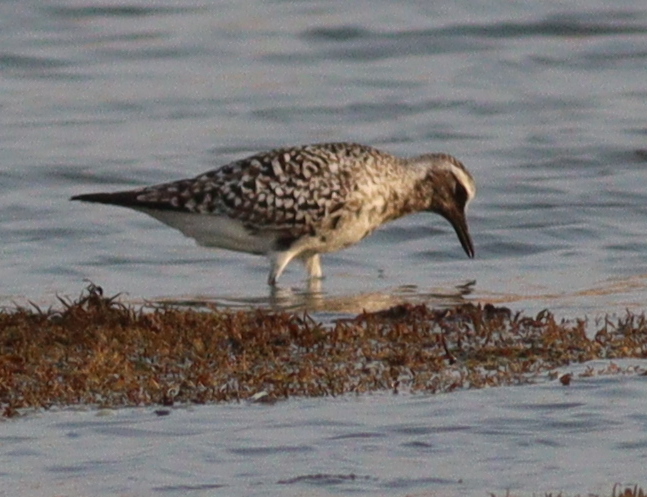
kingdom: Animalia
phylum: Chordata
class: Aves
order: Charadriiformes
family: Charadriidae
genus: Pluvialis
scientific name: Pluvialis squatarola
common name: Grey plover
